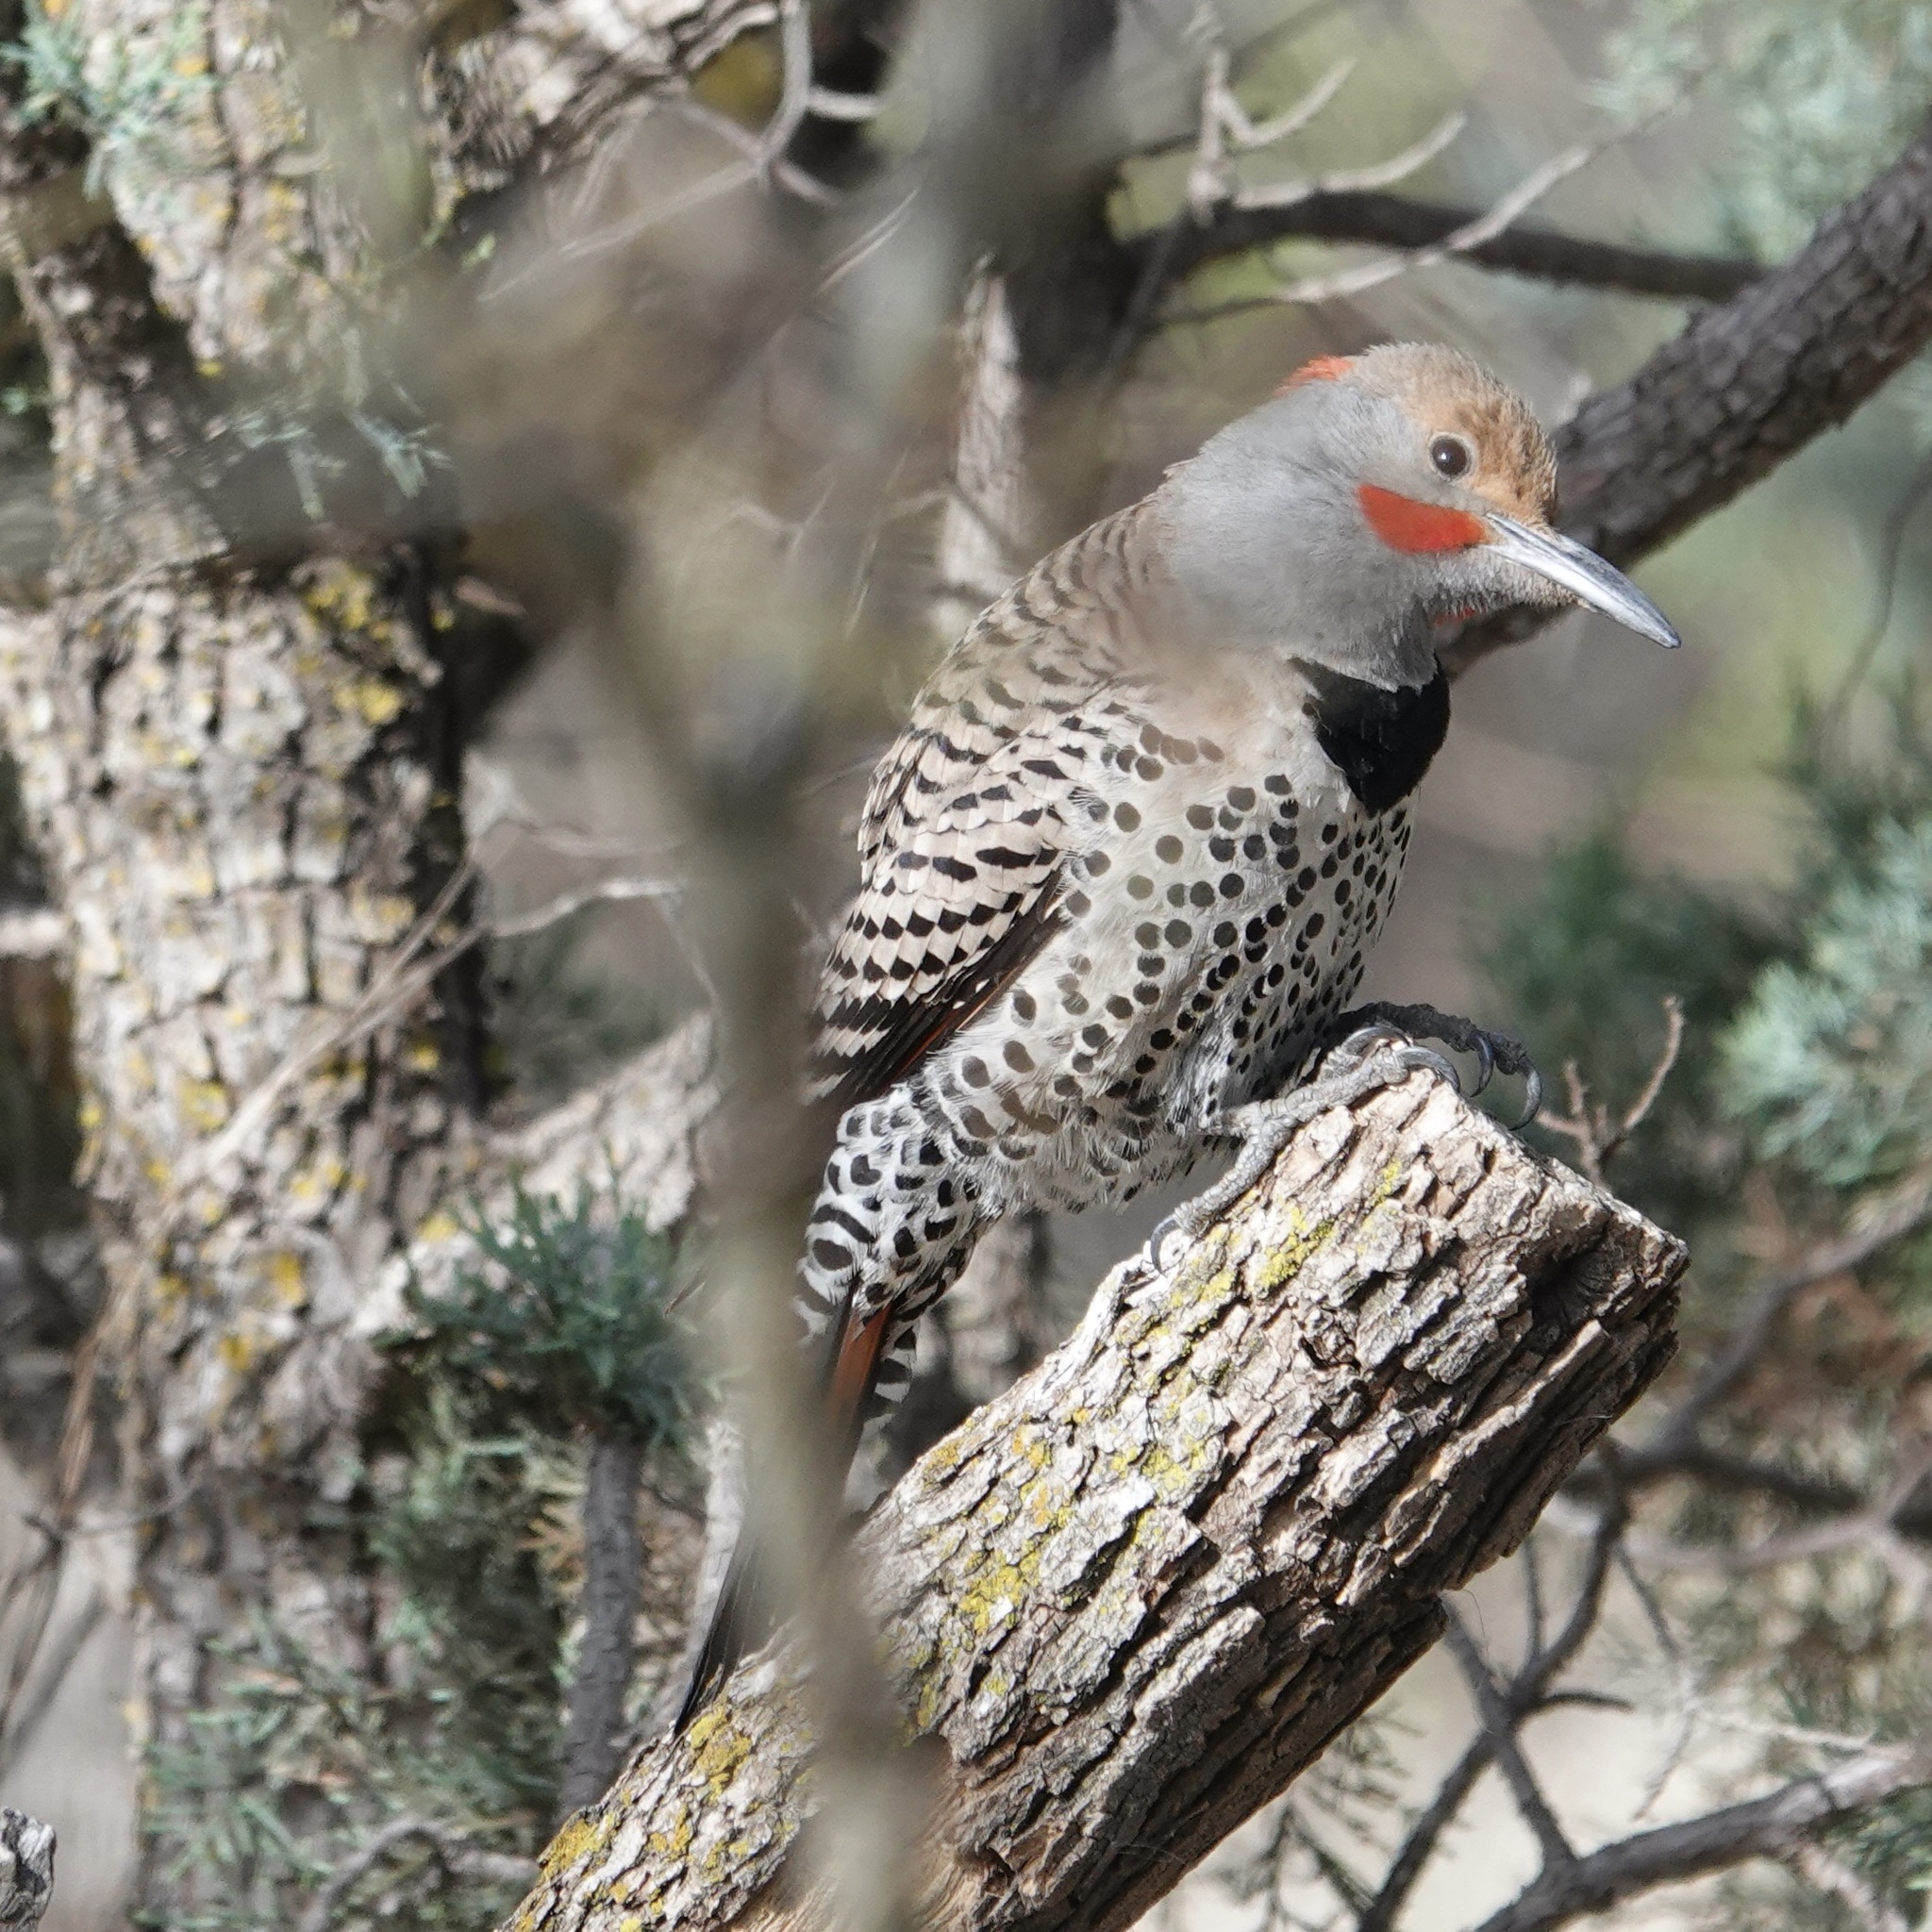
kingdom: Animalia
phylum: Chordata
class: Aves
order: Piciformes
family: Picidae
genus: Colaptes
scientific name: Colaptes auratus
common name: Northern flicker
